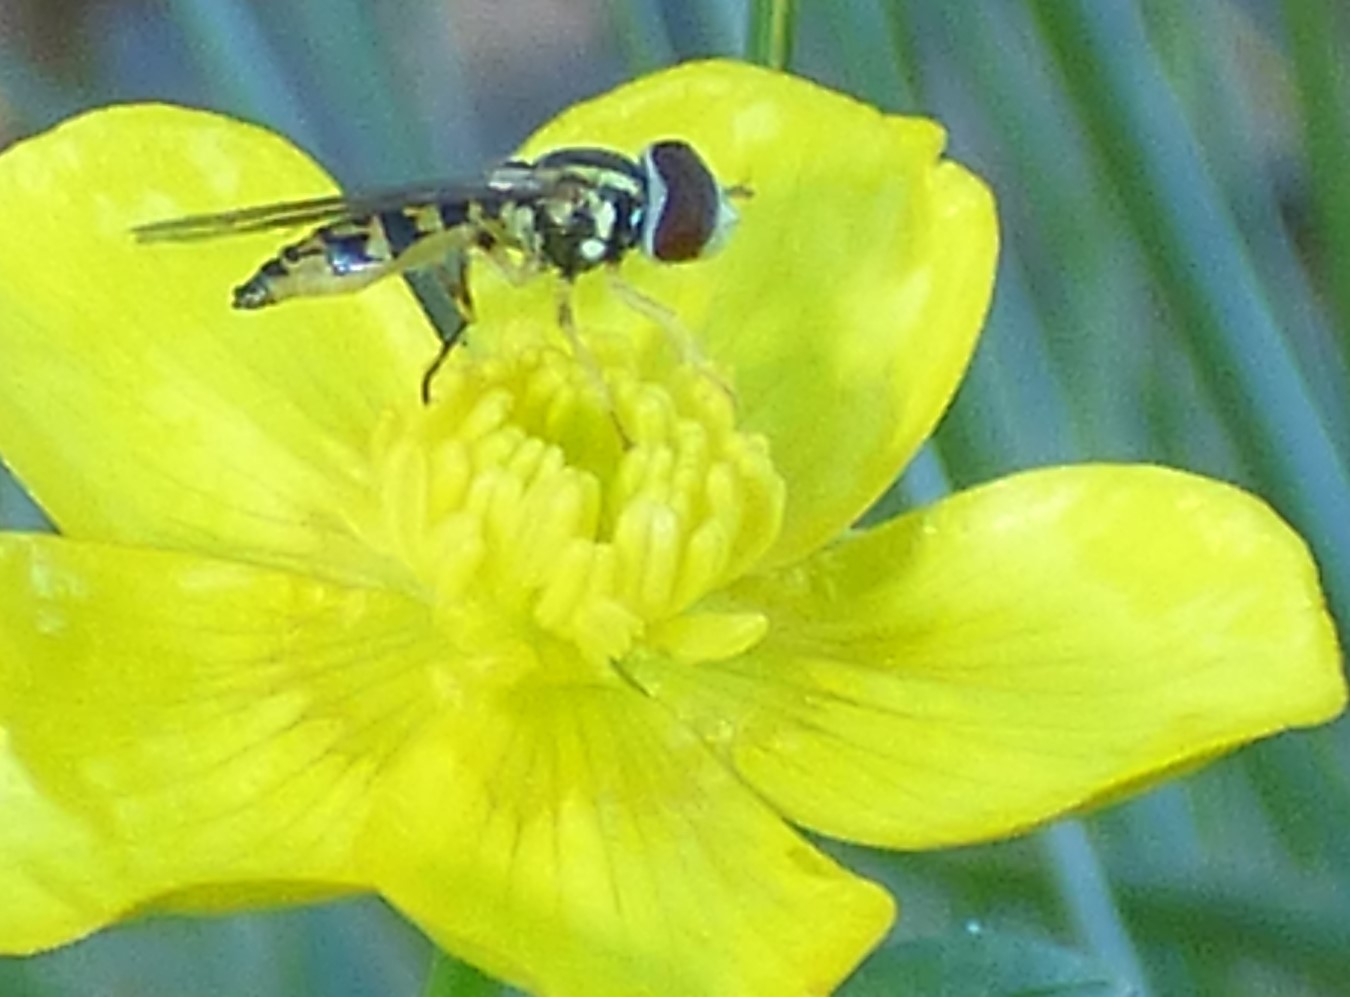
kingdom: Animalia
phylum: Arthropoda
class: Insecta
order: Diptera
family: Syrphidae
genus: Toxomerus
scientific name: Toxomerus geminatus
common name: Eastern calligrapher
